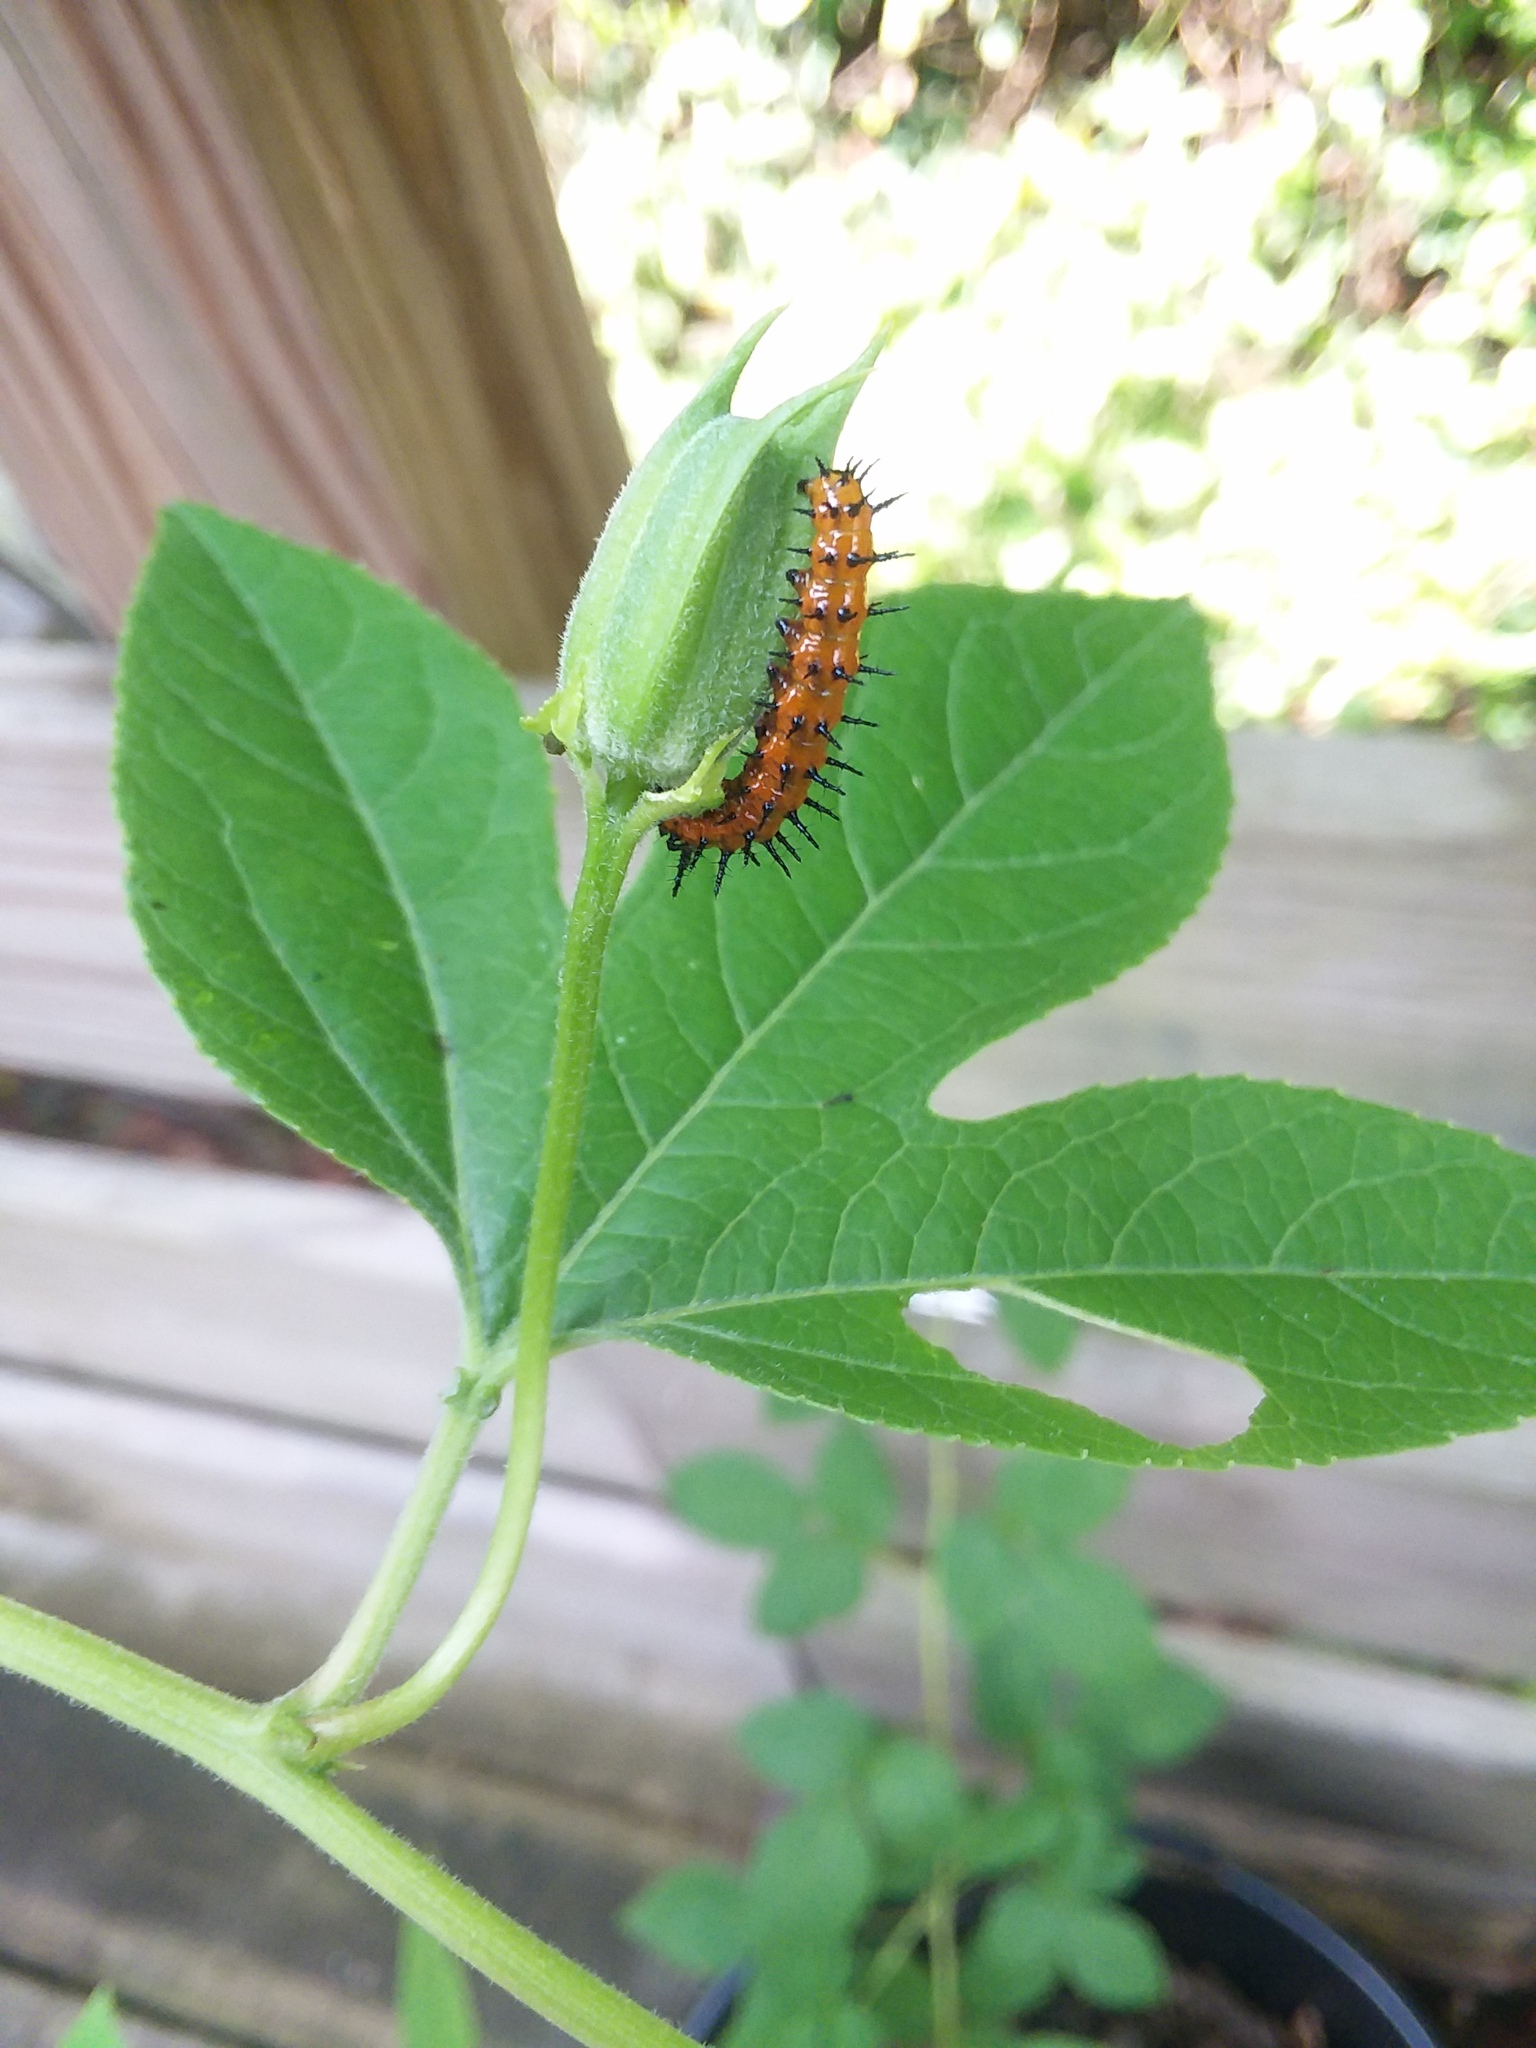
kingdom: Animalia
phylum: Arthropoda
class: Insecta
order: Lepidoptera
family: Nymphalidae
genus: Dione
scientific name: Dione vanillae
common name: Gulf fritillary
